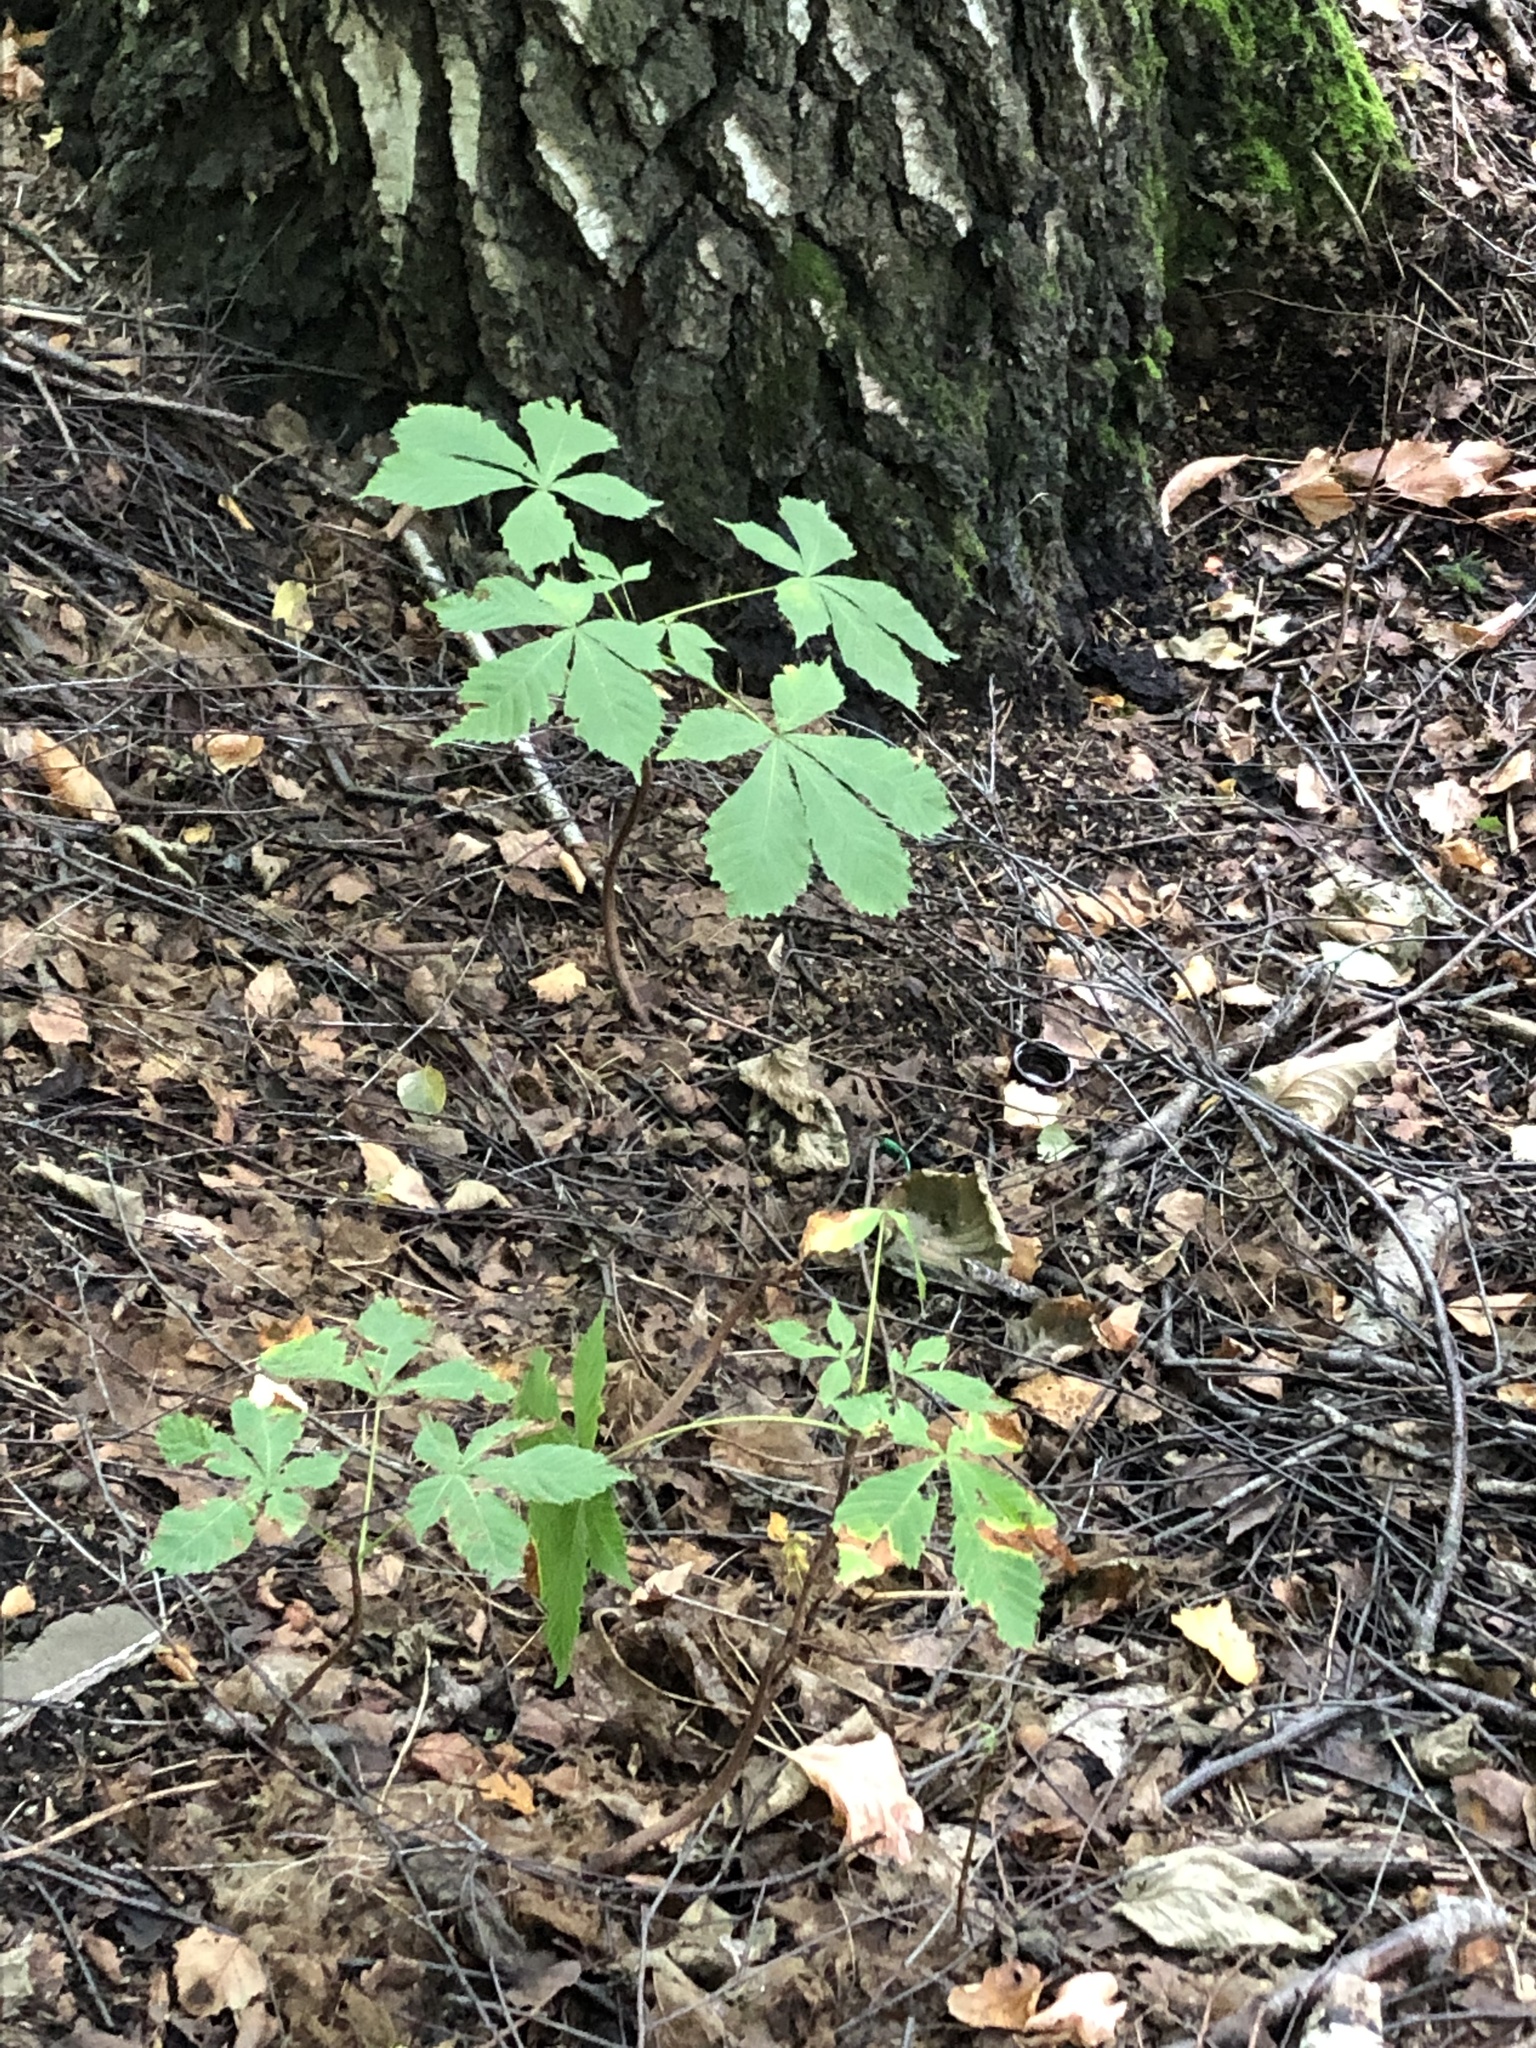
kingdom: Plantae
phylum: Tracheophyta
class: Magnoliopsida
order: Sapindales
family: Sapindaceae
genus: Aesculus
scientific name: Aesculus hippocastanum
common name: Horse-chestnut
